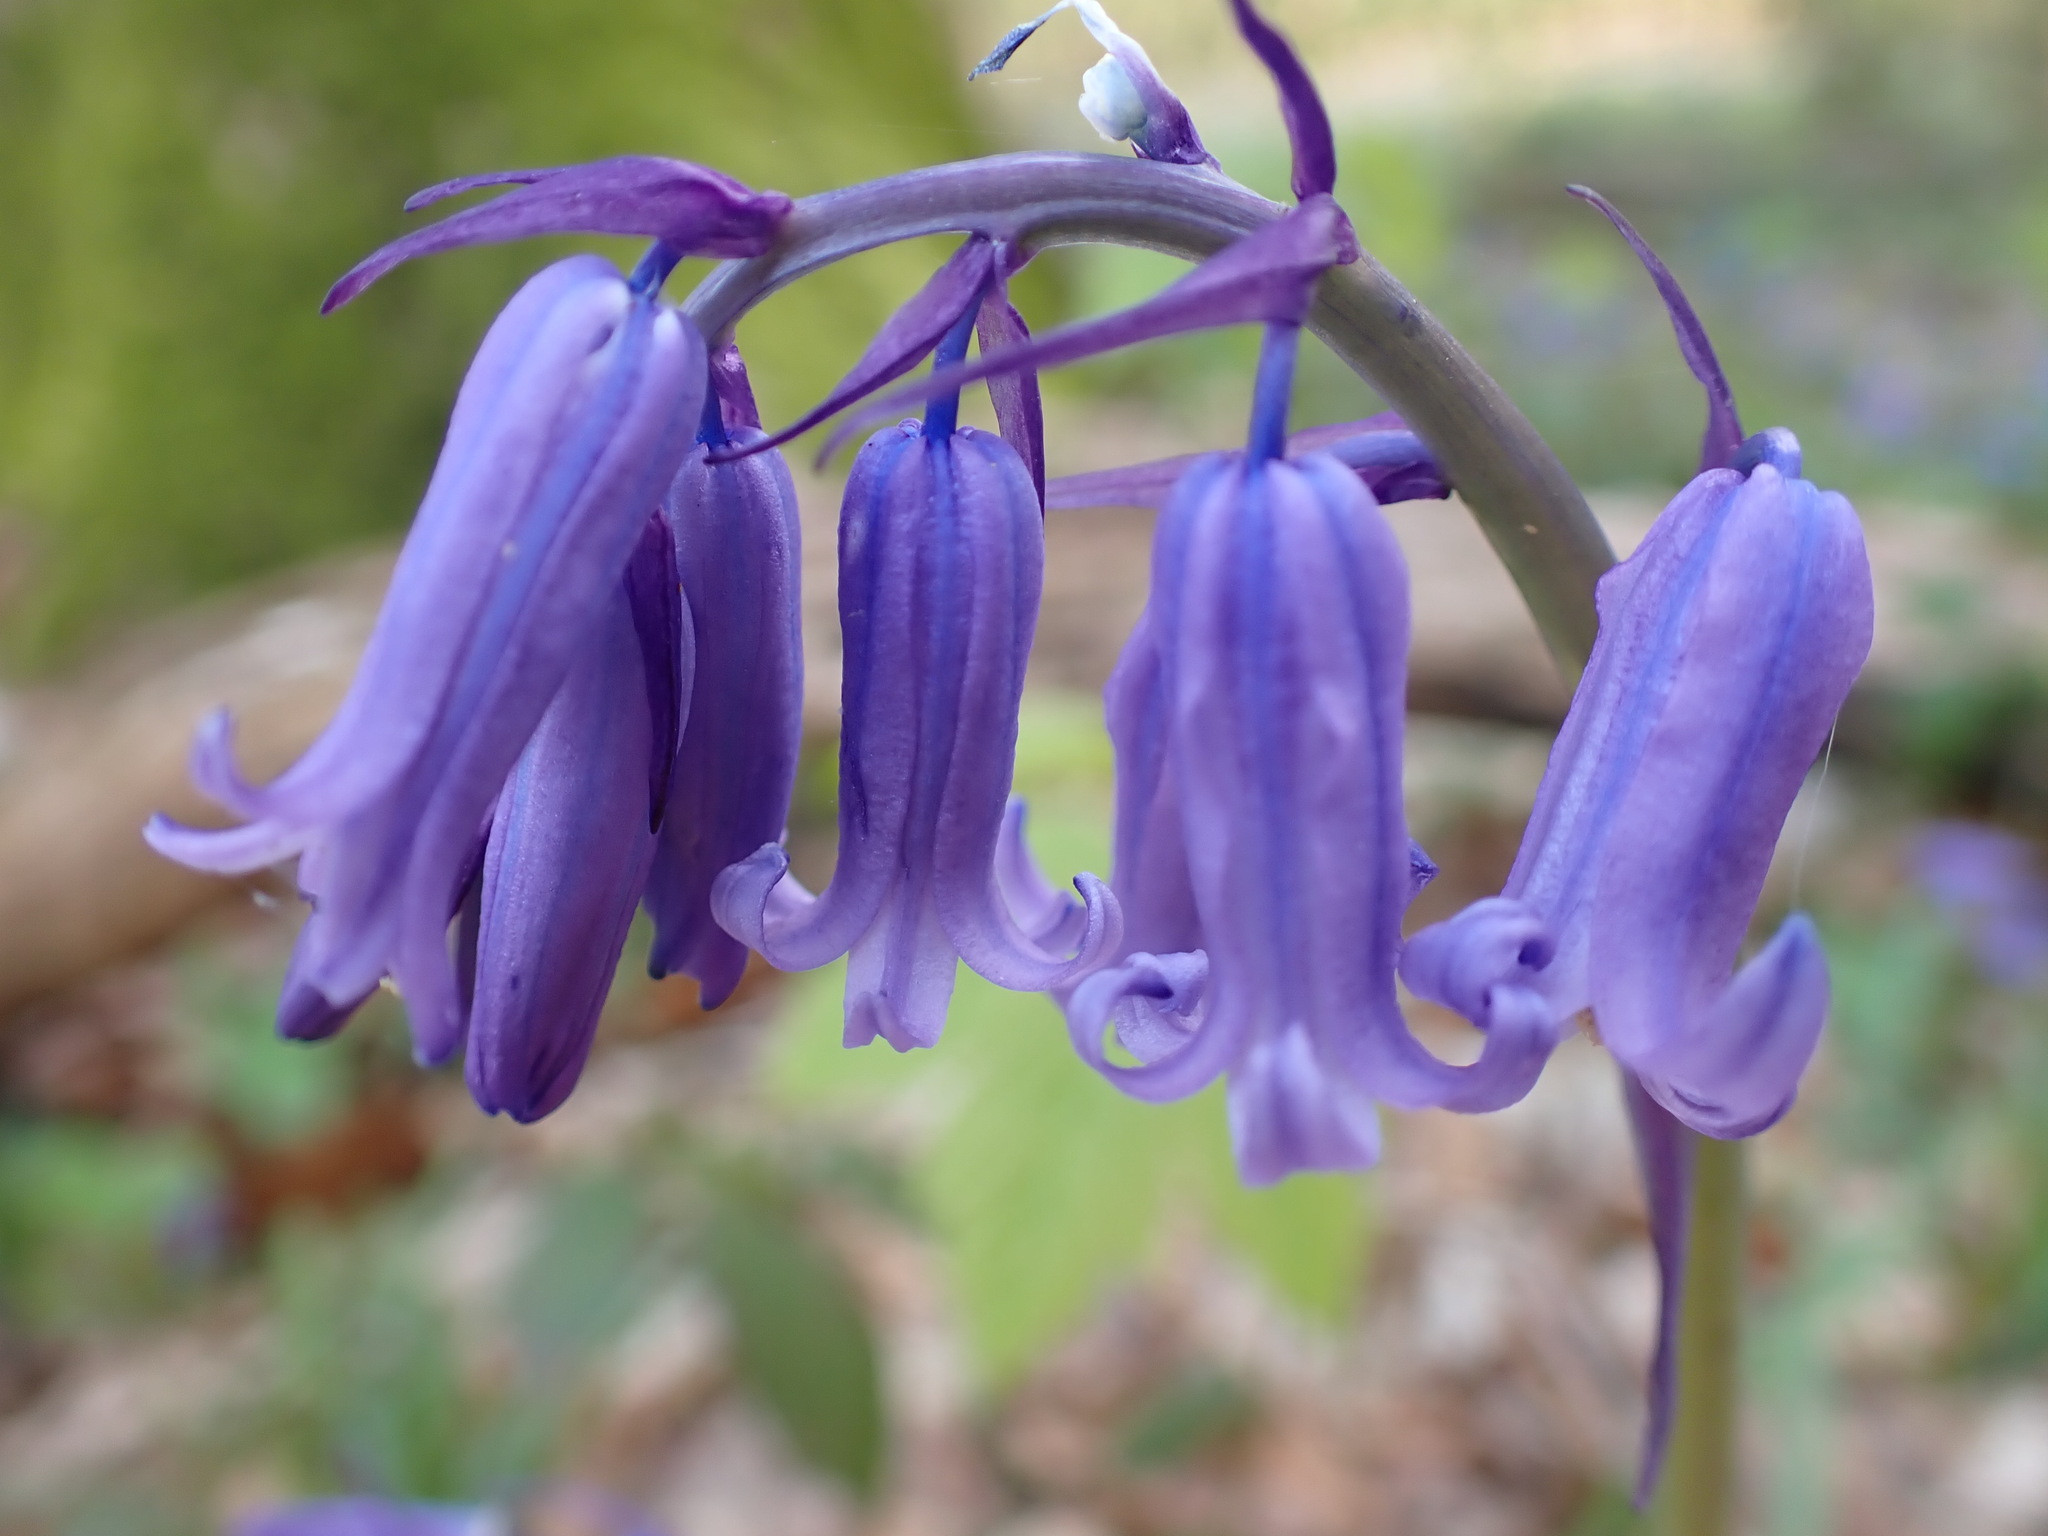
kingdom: Plantae
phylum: Tracheophyta
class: Liliopsida
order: Asparagales
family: Asparagaceae
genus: Hyacinthoides
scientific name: Hyacinthoides non-scripta
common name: Bluebell
